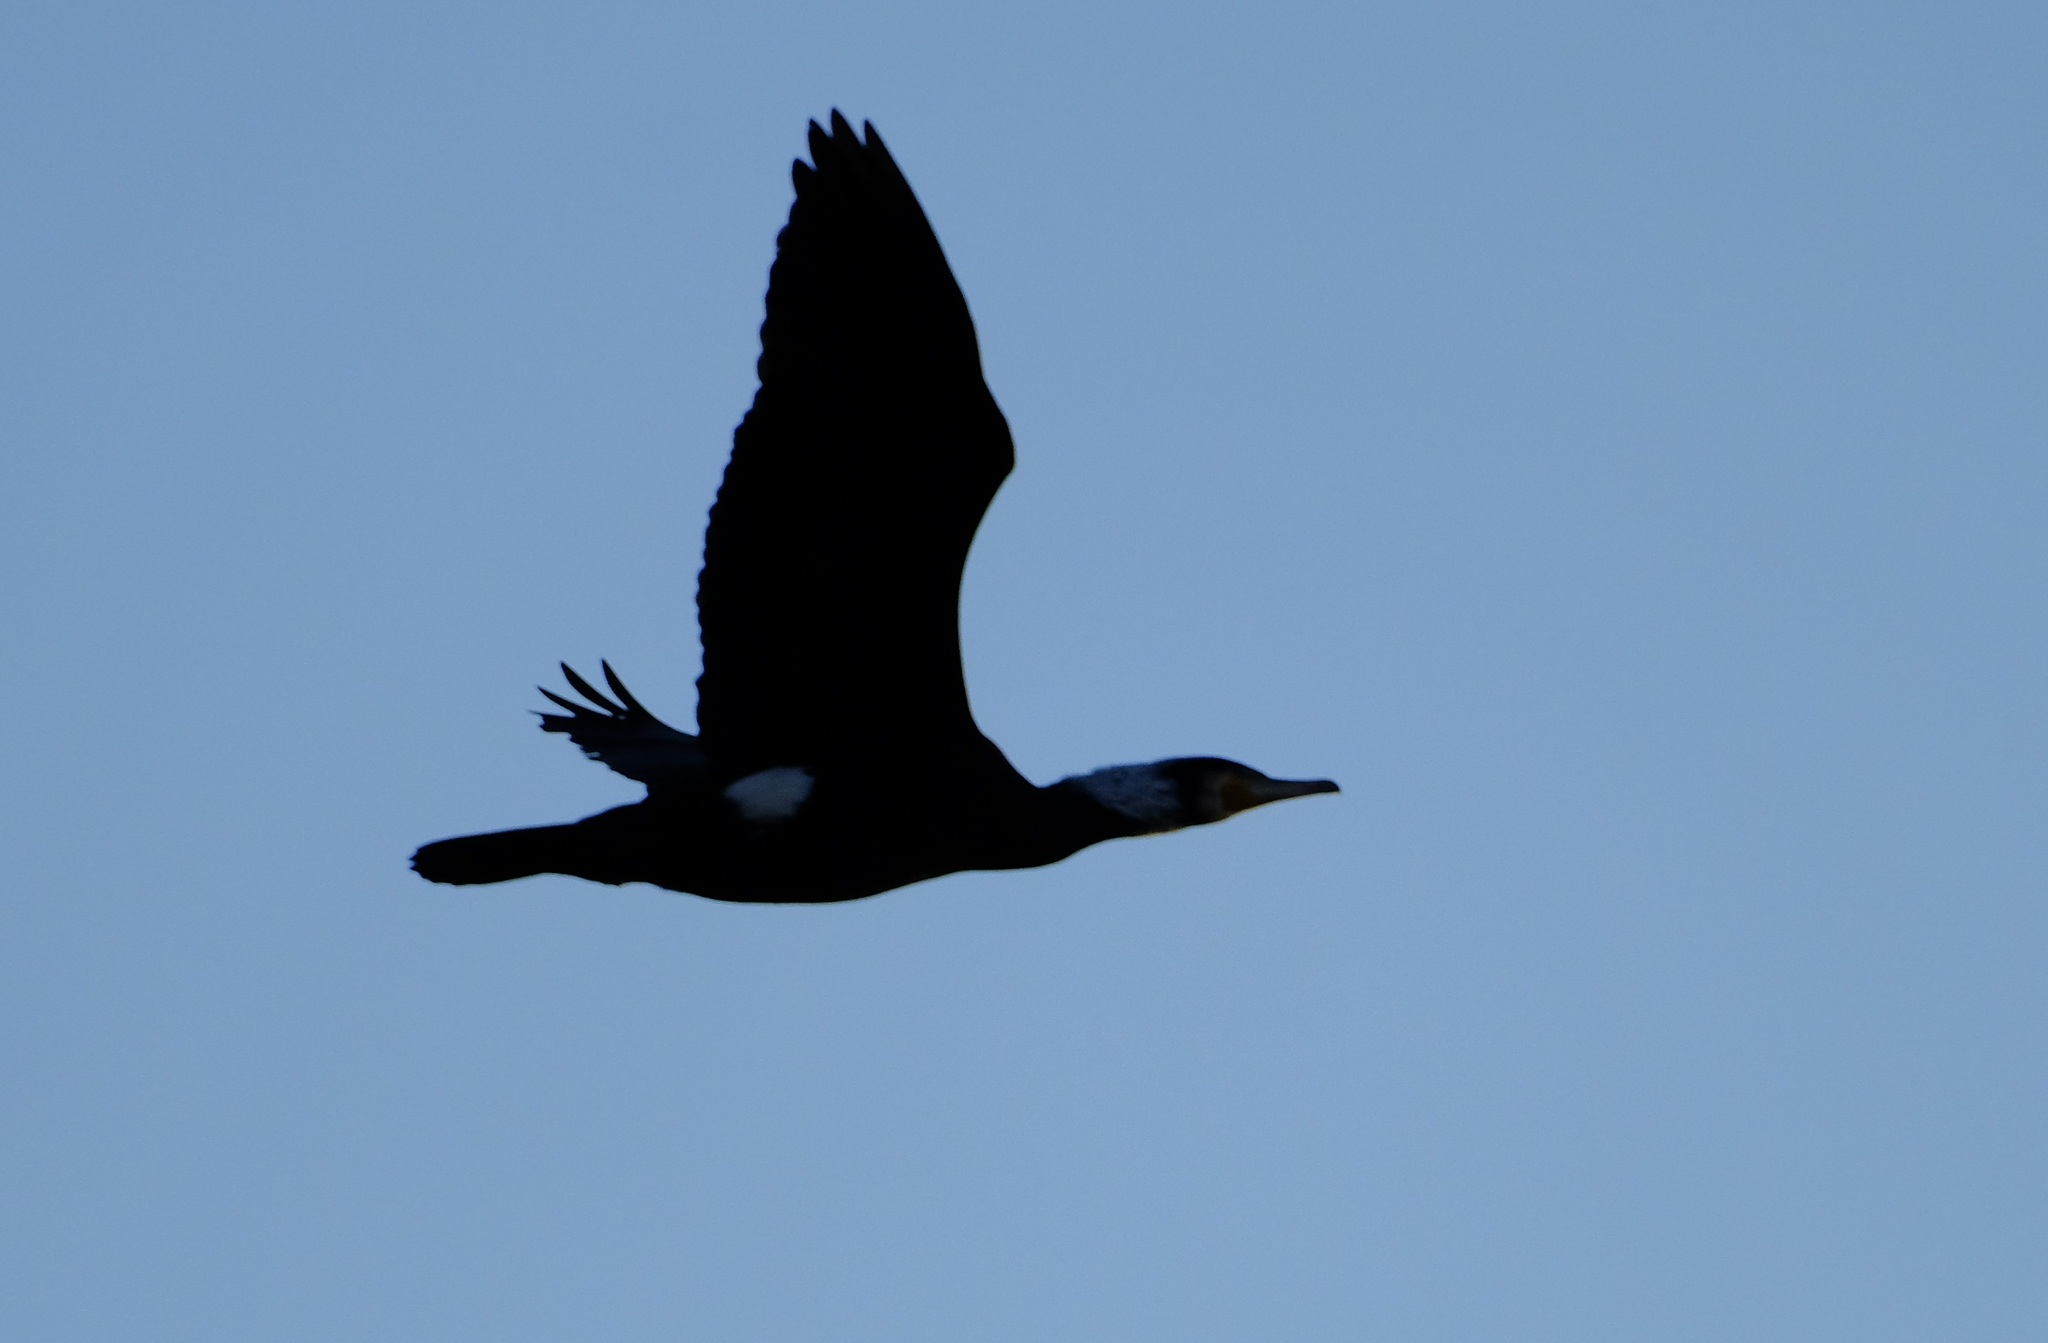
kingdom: Animalia
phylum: Chordata
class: Aves
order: Suliformes
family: Phalacrocoracidae
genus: Phalacrocorax
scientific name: Phalacrocorax carbo
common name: Great cormorant
